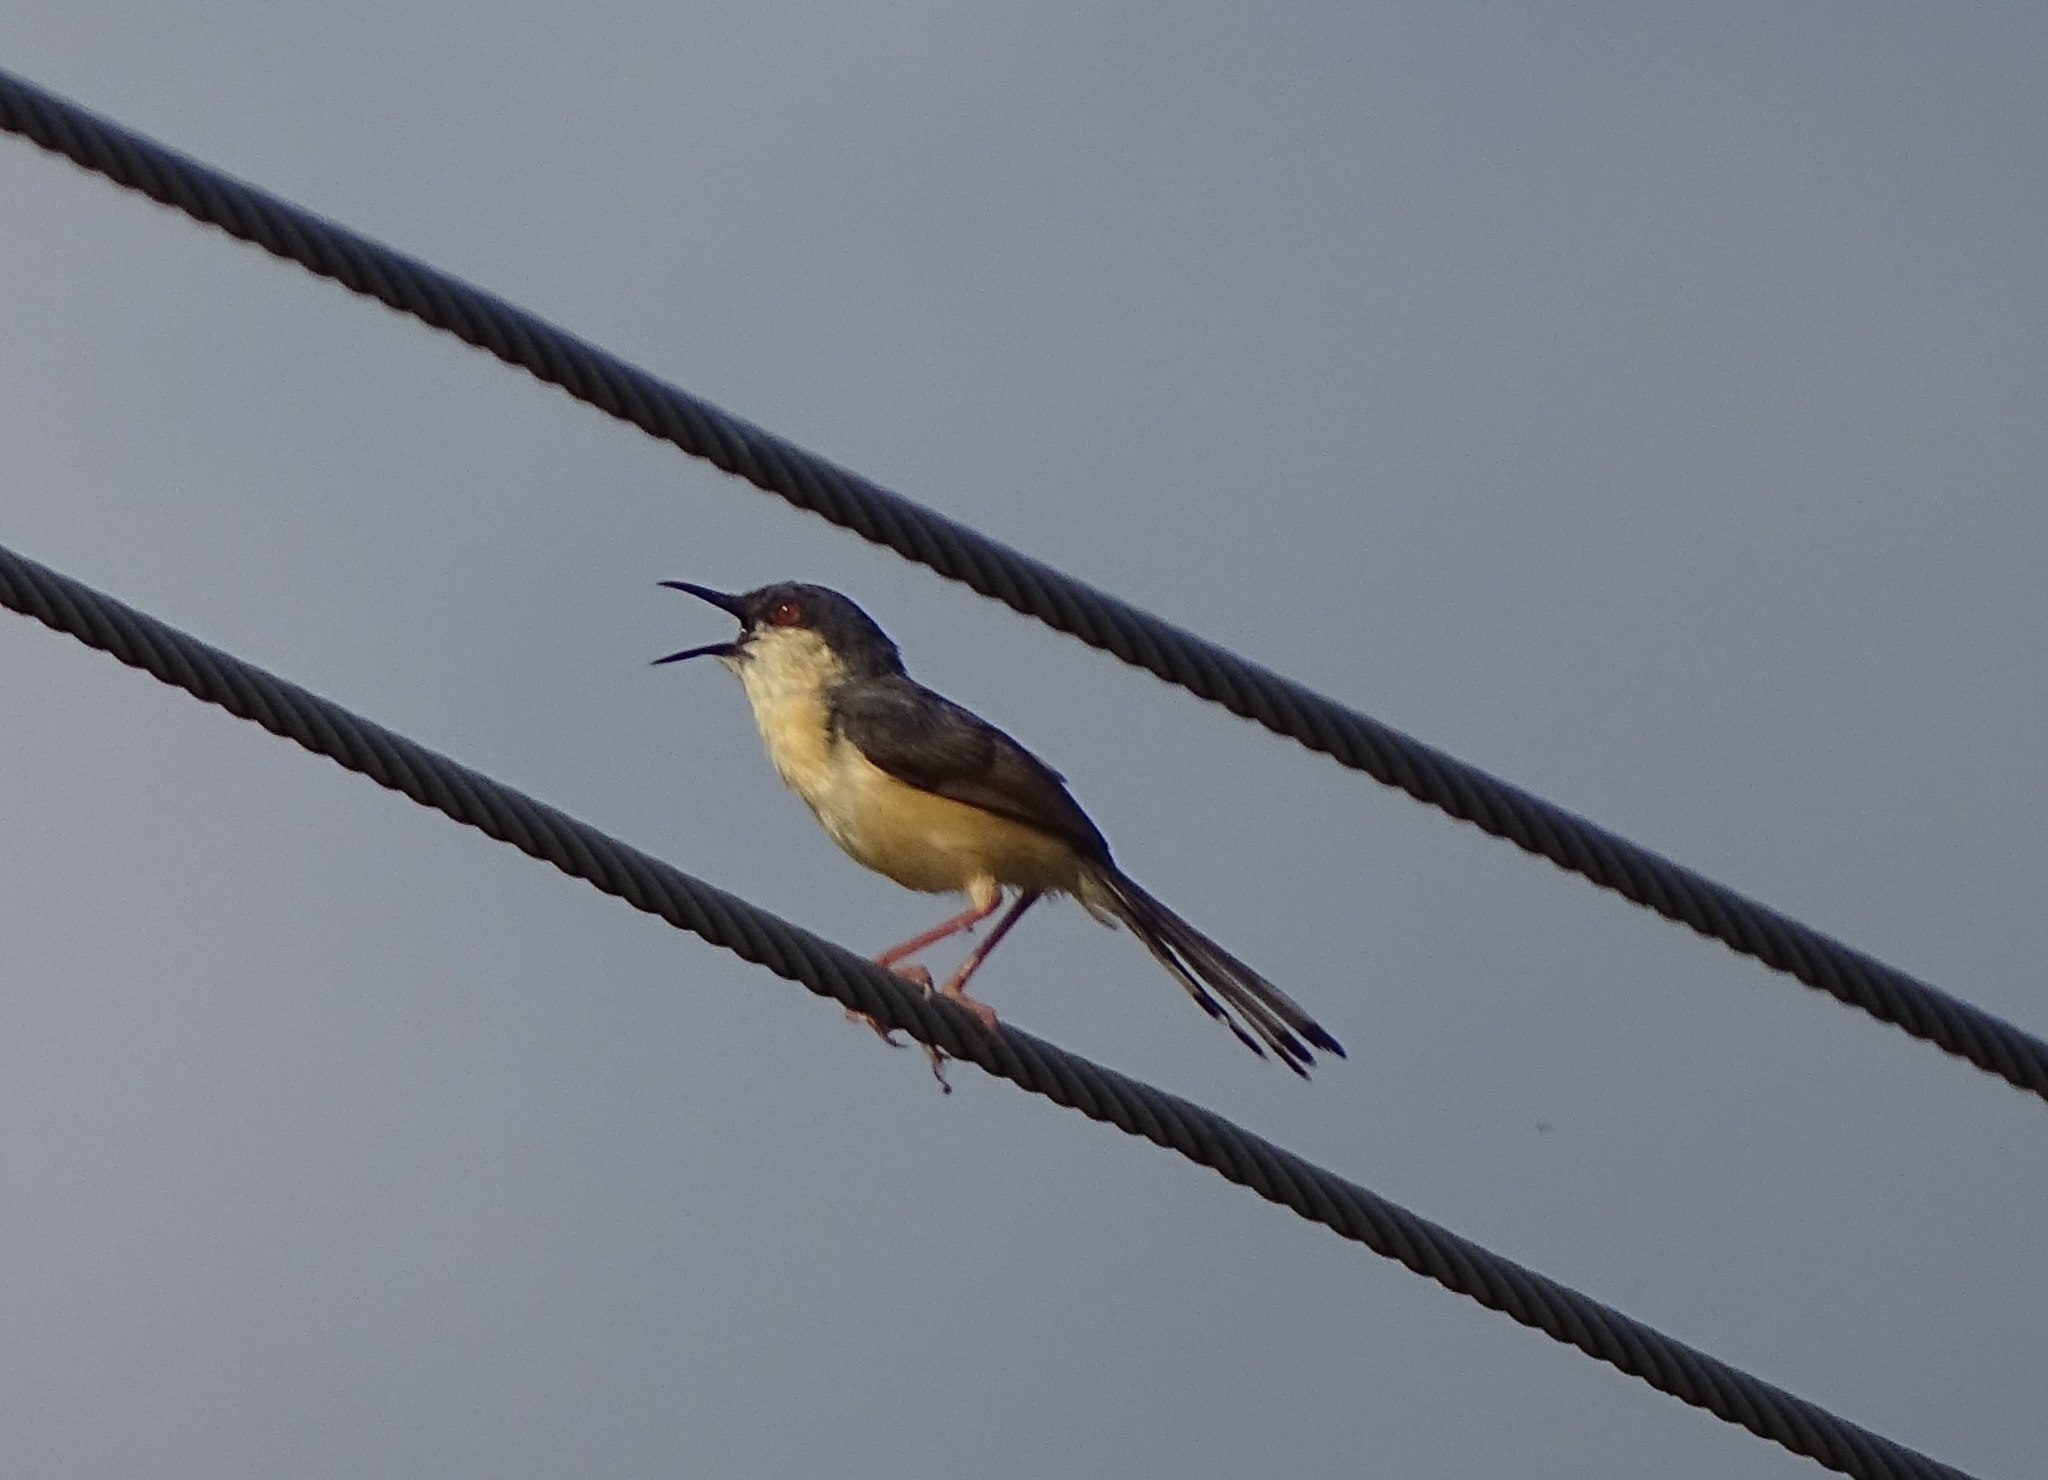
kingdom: Animalia
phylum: Chordata
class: Aves
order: Passeriformes
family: Cisticolidae
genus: Prinia
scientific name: Prinia socialis
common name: Ashy prinia
